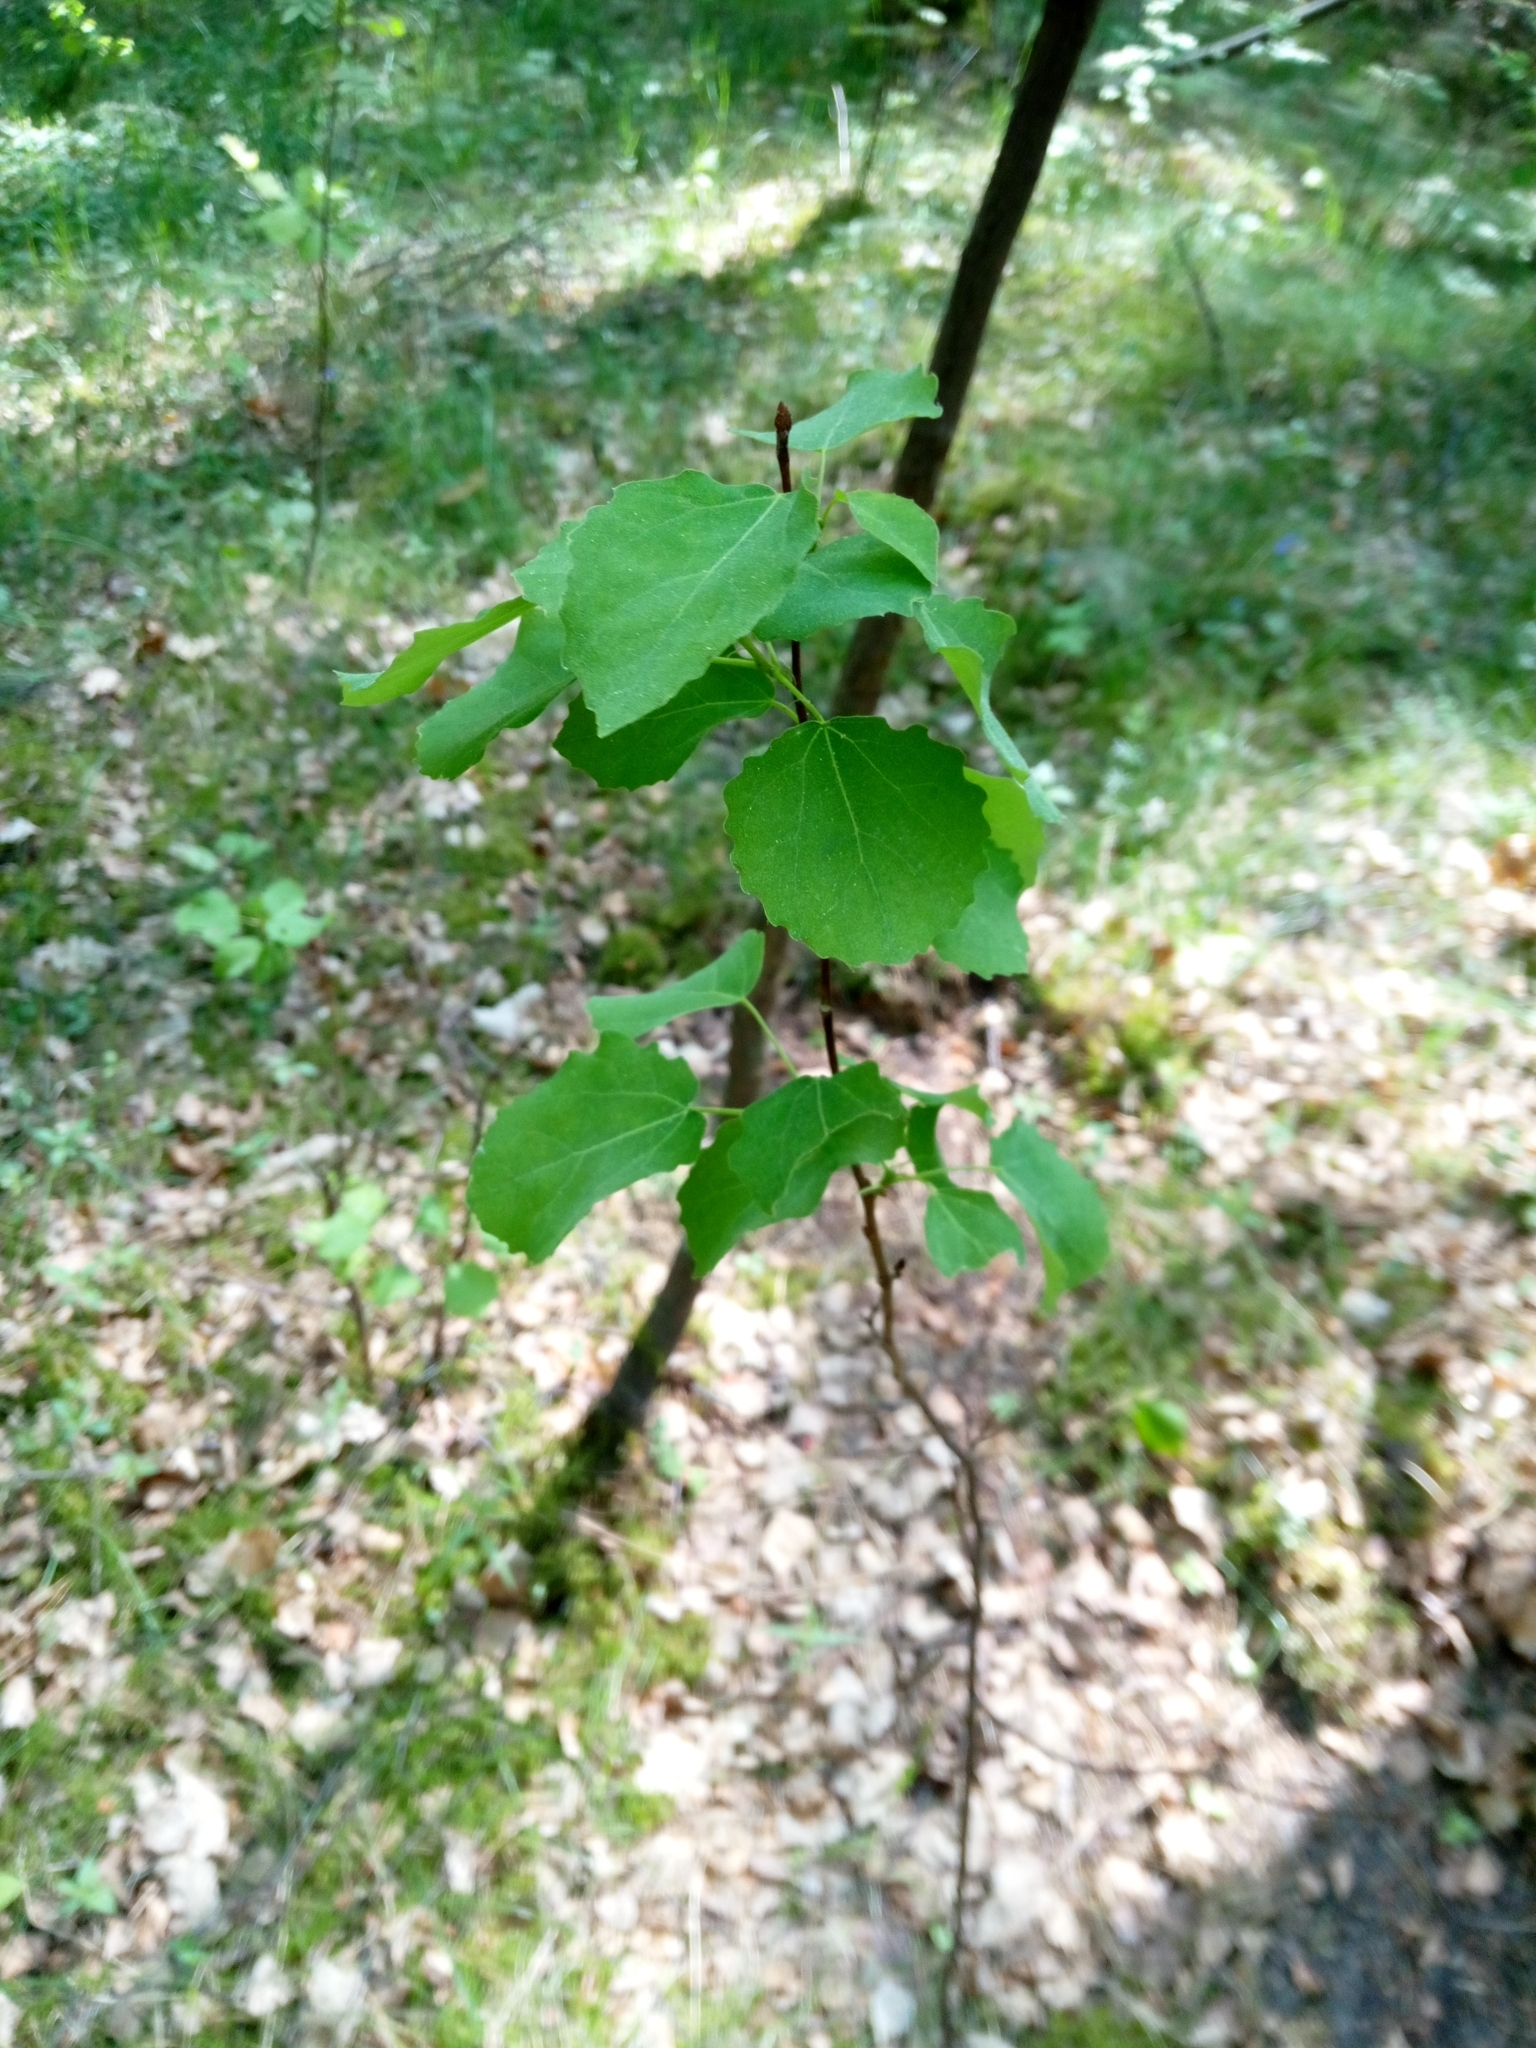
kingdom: Plantae
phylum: Tracheophyta
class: Magnoliopsida
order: Malpighiales
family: Salicaceae
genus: Populus
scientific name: Populus tremula
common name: European aspen
